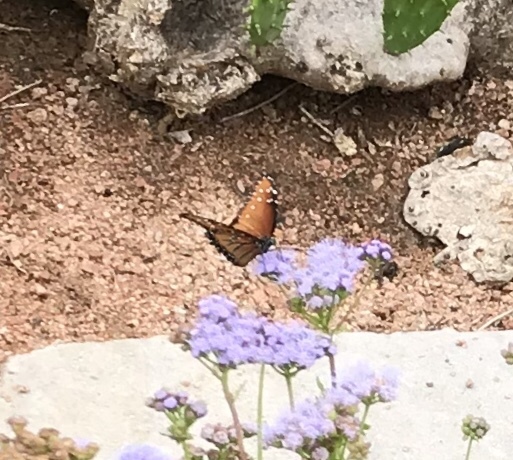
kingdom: Animalia
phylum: Arthropoda
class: Insecta
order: Lepidoptera
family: Nymphalidae
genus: Danaus
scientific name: Danaus gilippus
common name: Queen
